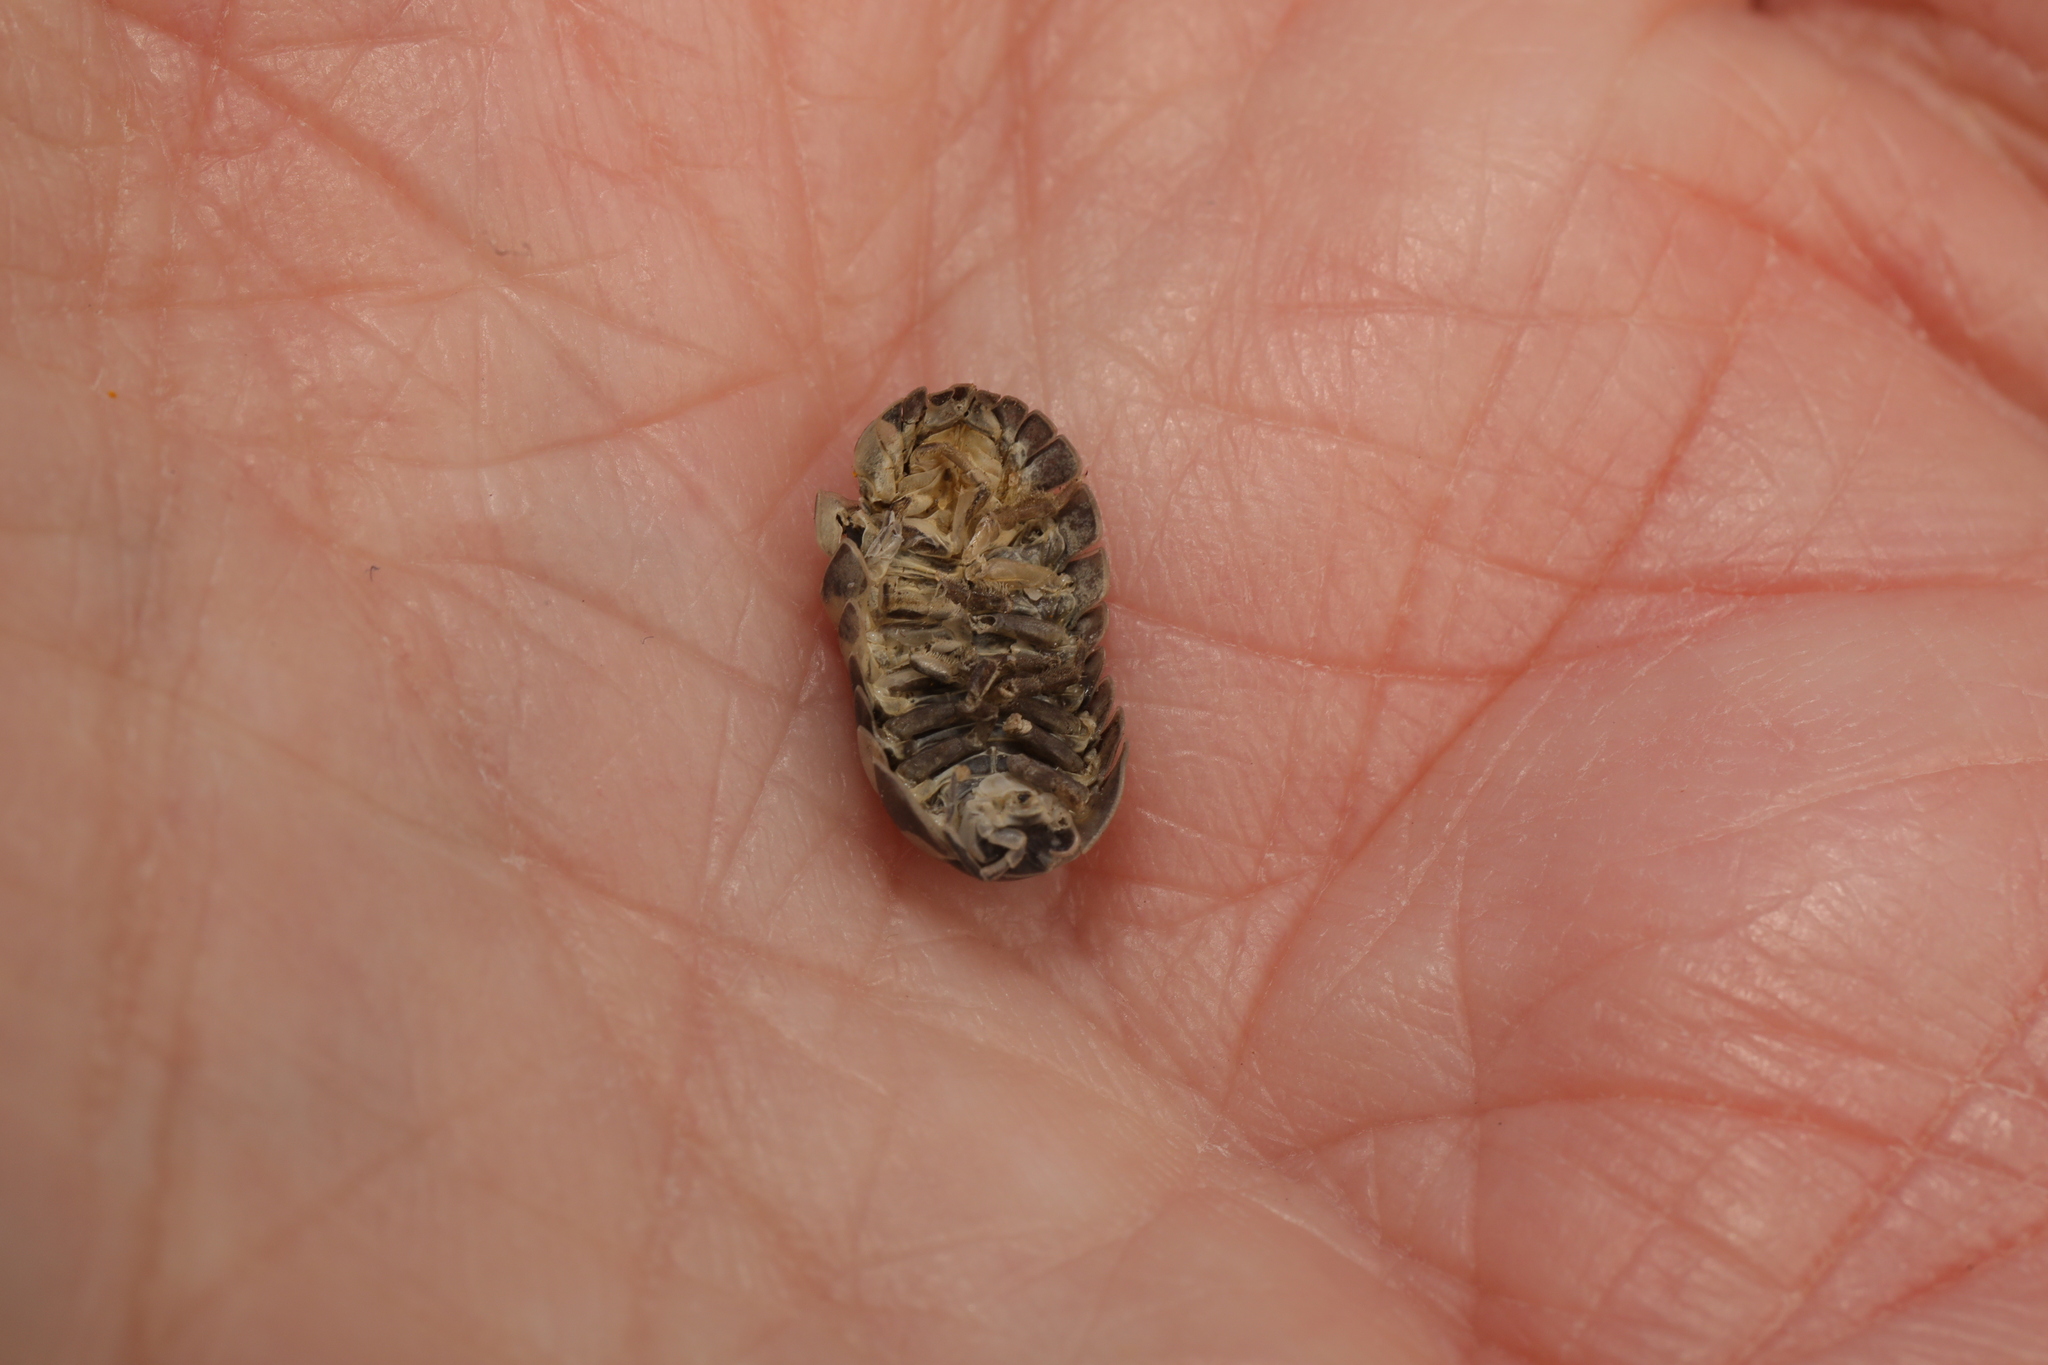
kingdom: Animalia
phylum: Arthropoda
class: Malacostraca
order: Isopoda
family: Armadillidiidae
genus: Armadillidium
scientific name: Armadillidium vulgare
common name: Common pill woodlouse
